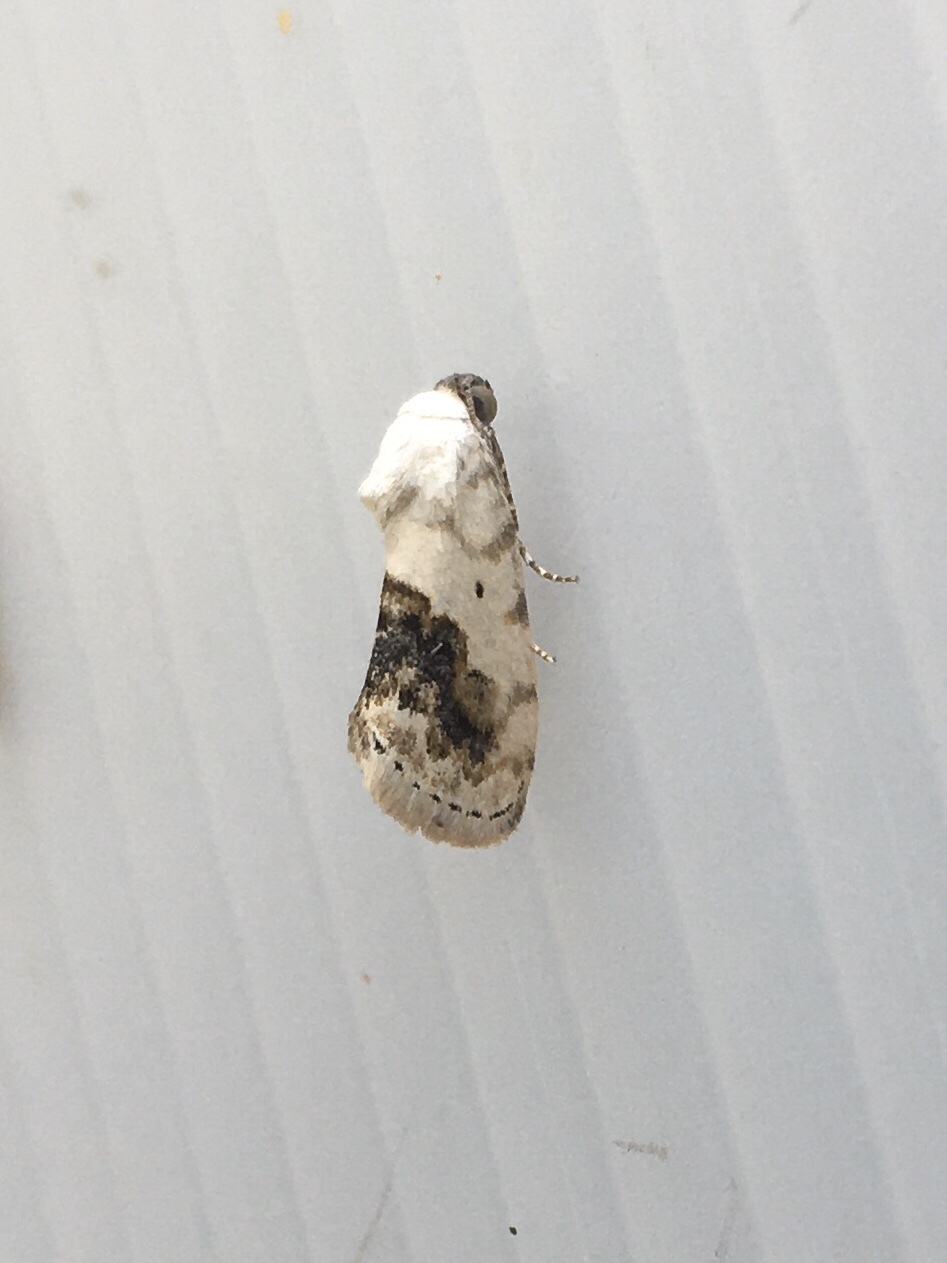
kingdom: Animalia
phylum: Arthropoda
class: Insecta
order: Lepidoptera
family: Noctuidae
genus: Acontia
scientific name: Acontia erastrioides
